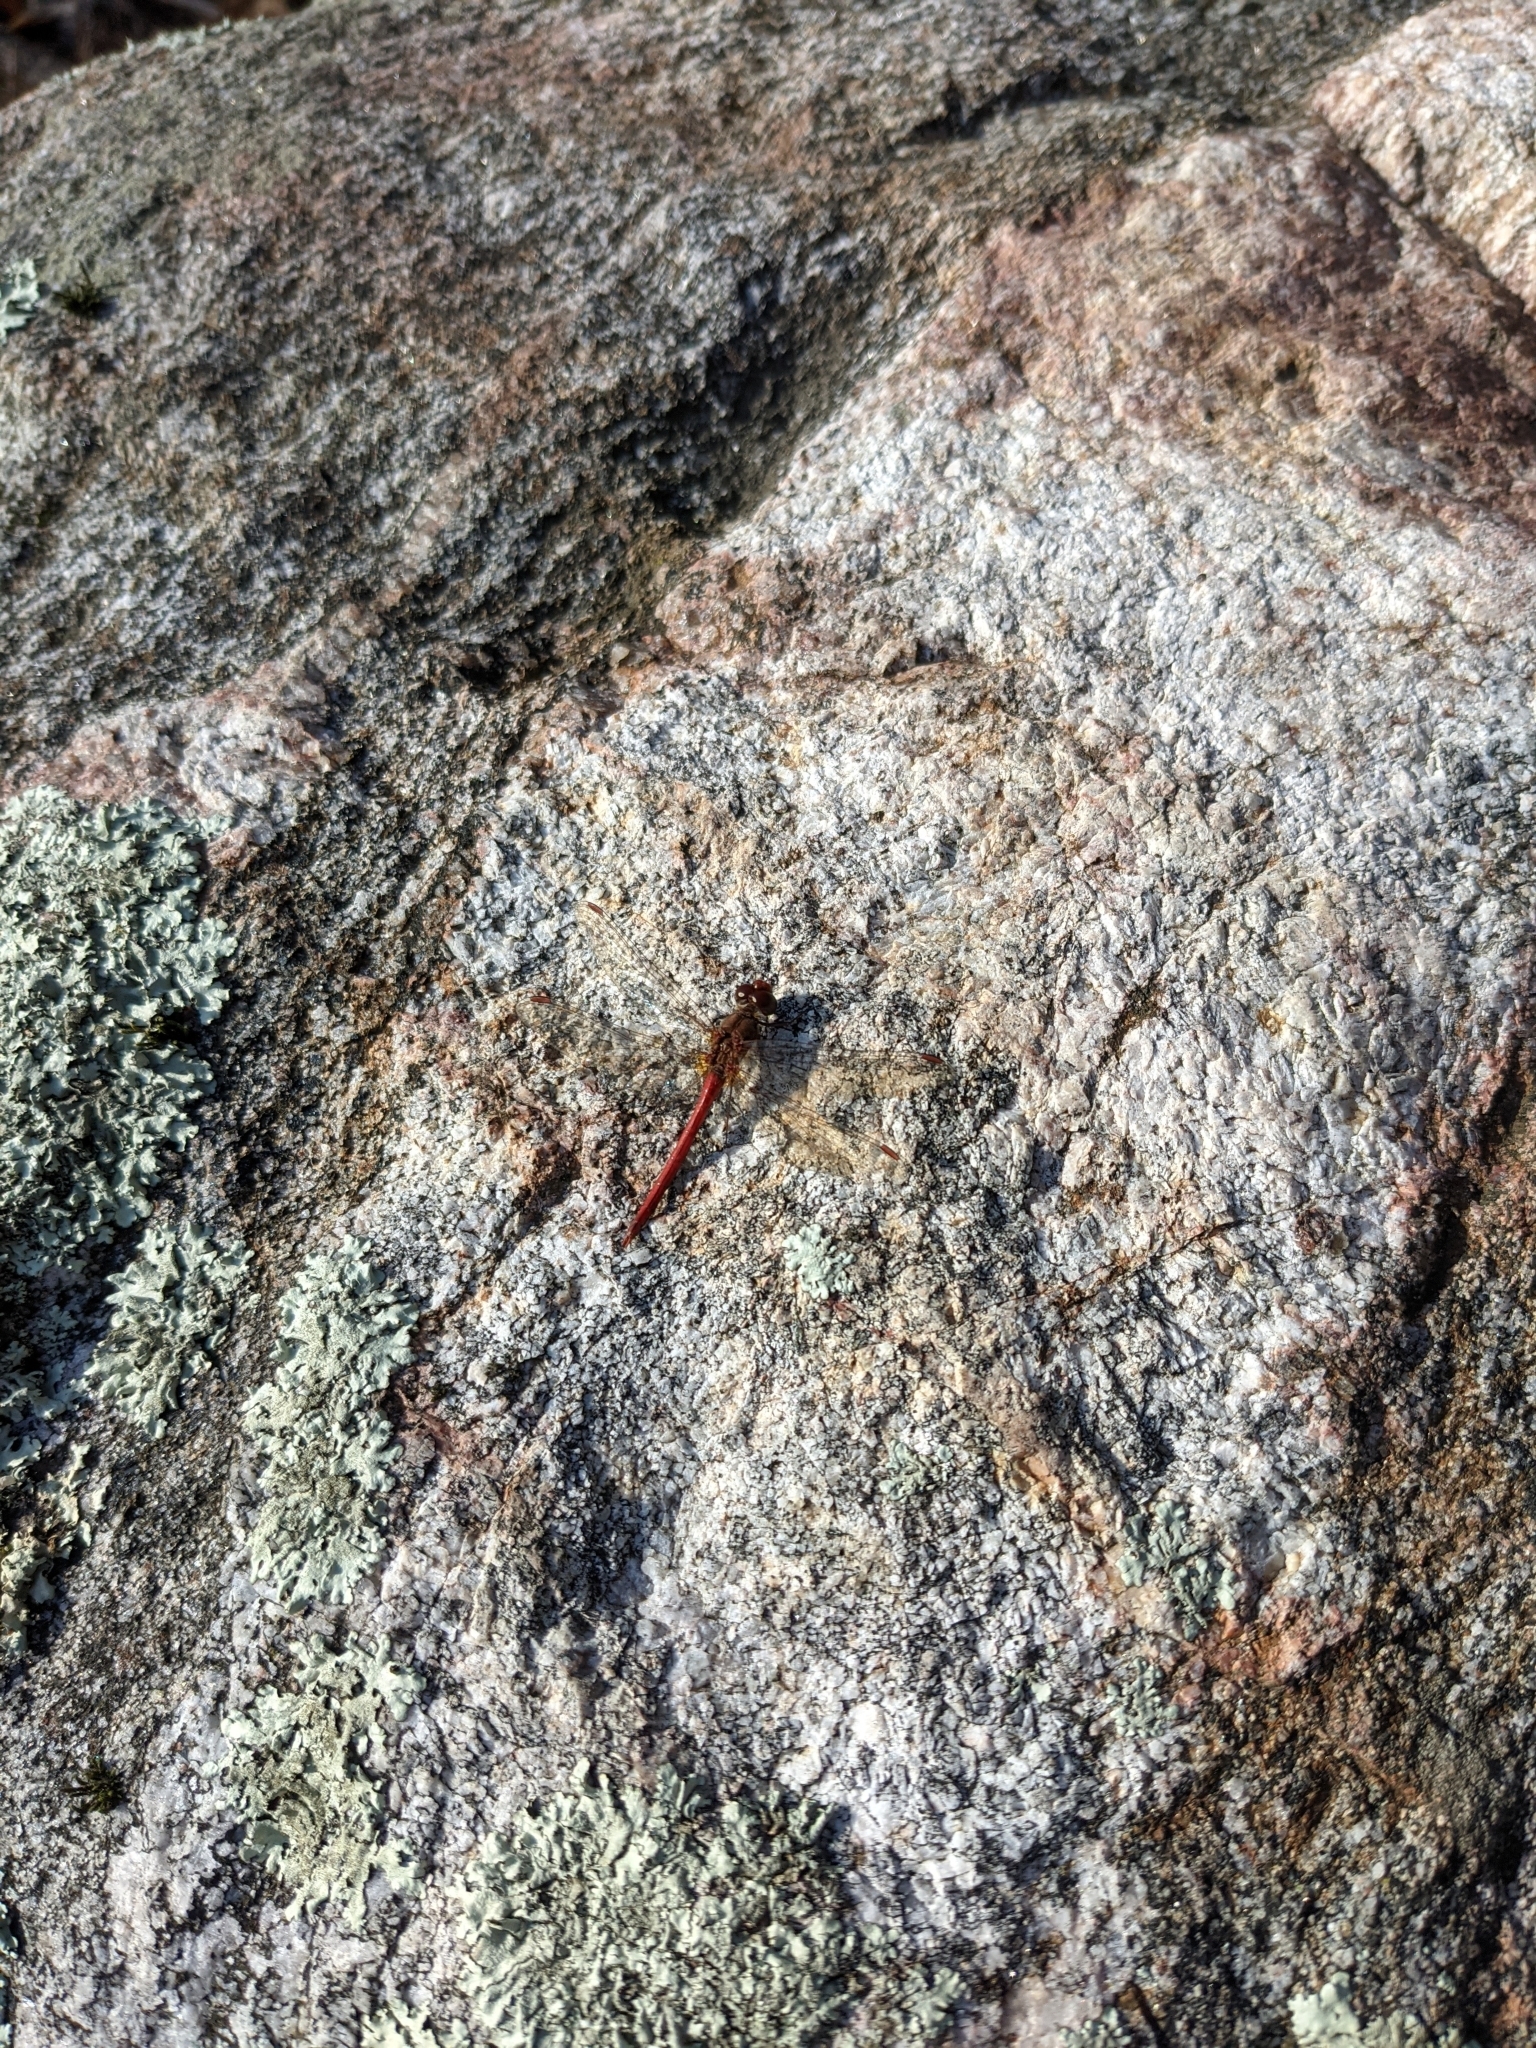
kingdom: Animalia
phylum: Arthropoda
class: Insecta
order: Odonata
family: Libellulidae
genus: Sympetrum
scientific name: Sympetrum vicinum
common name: Autumn meadowhawk
